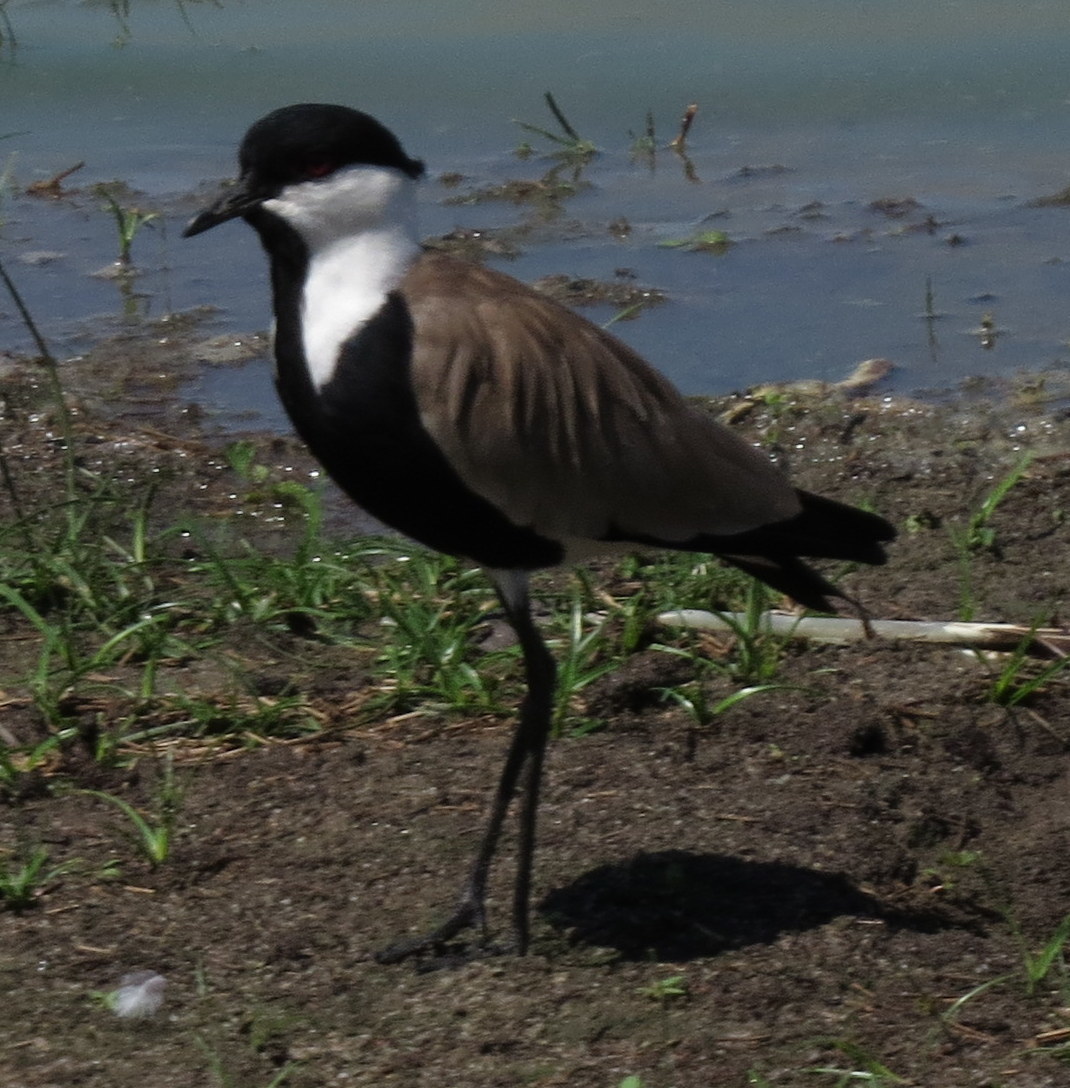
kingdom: Animalia
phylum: Chordata
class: Aves
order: Charadriiformes
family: Charadriidae
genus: Vanellus
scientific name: Vanellus spinosus
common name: Spur-winged lapwing
